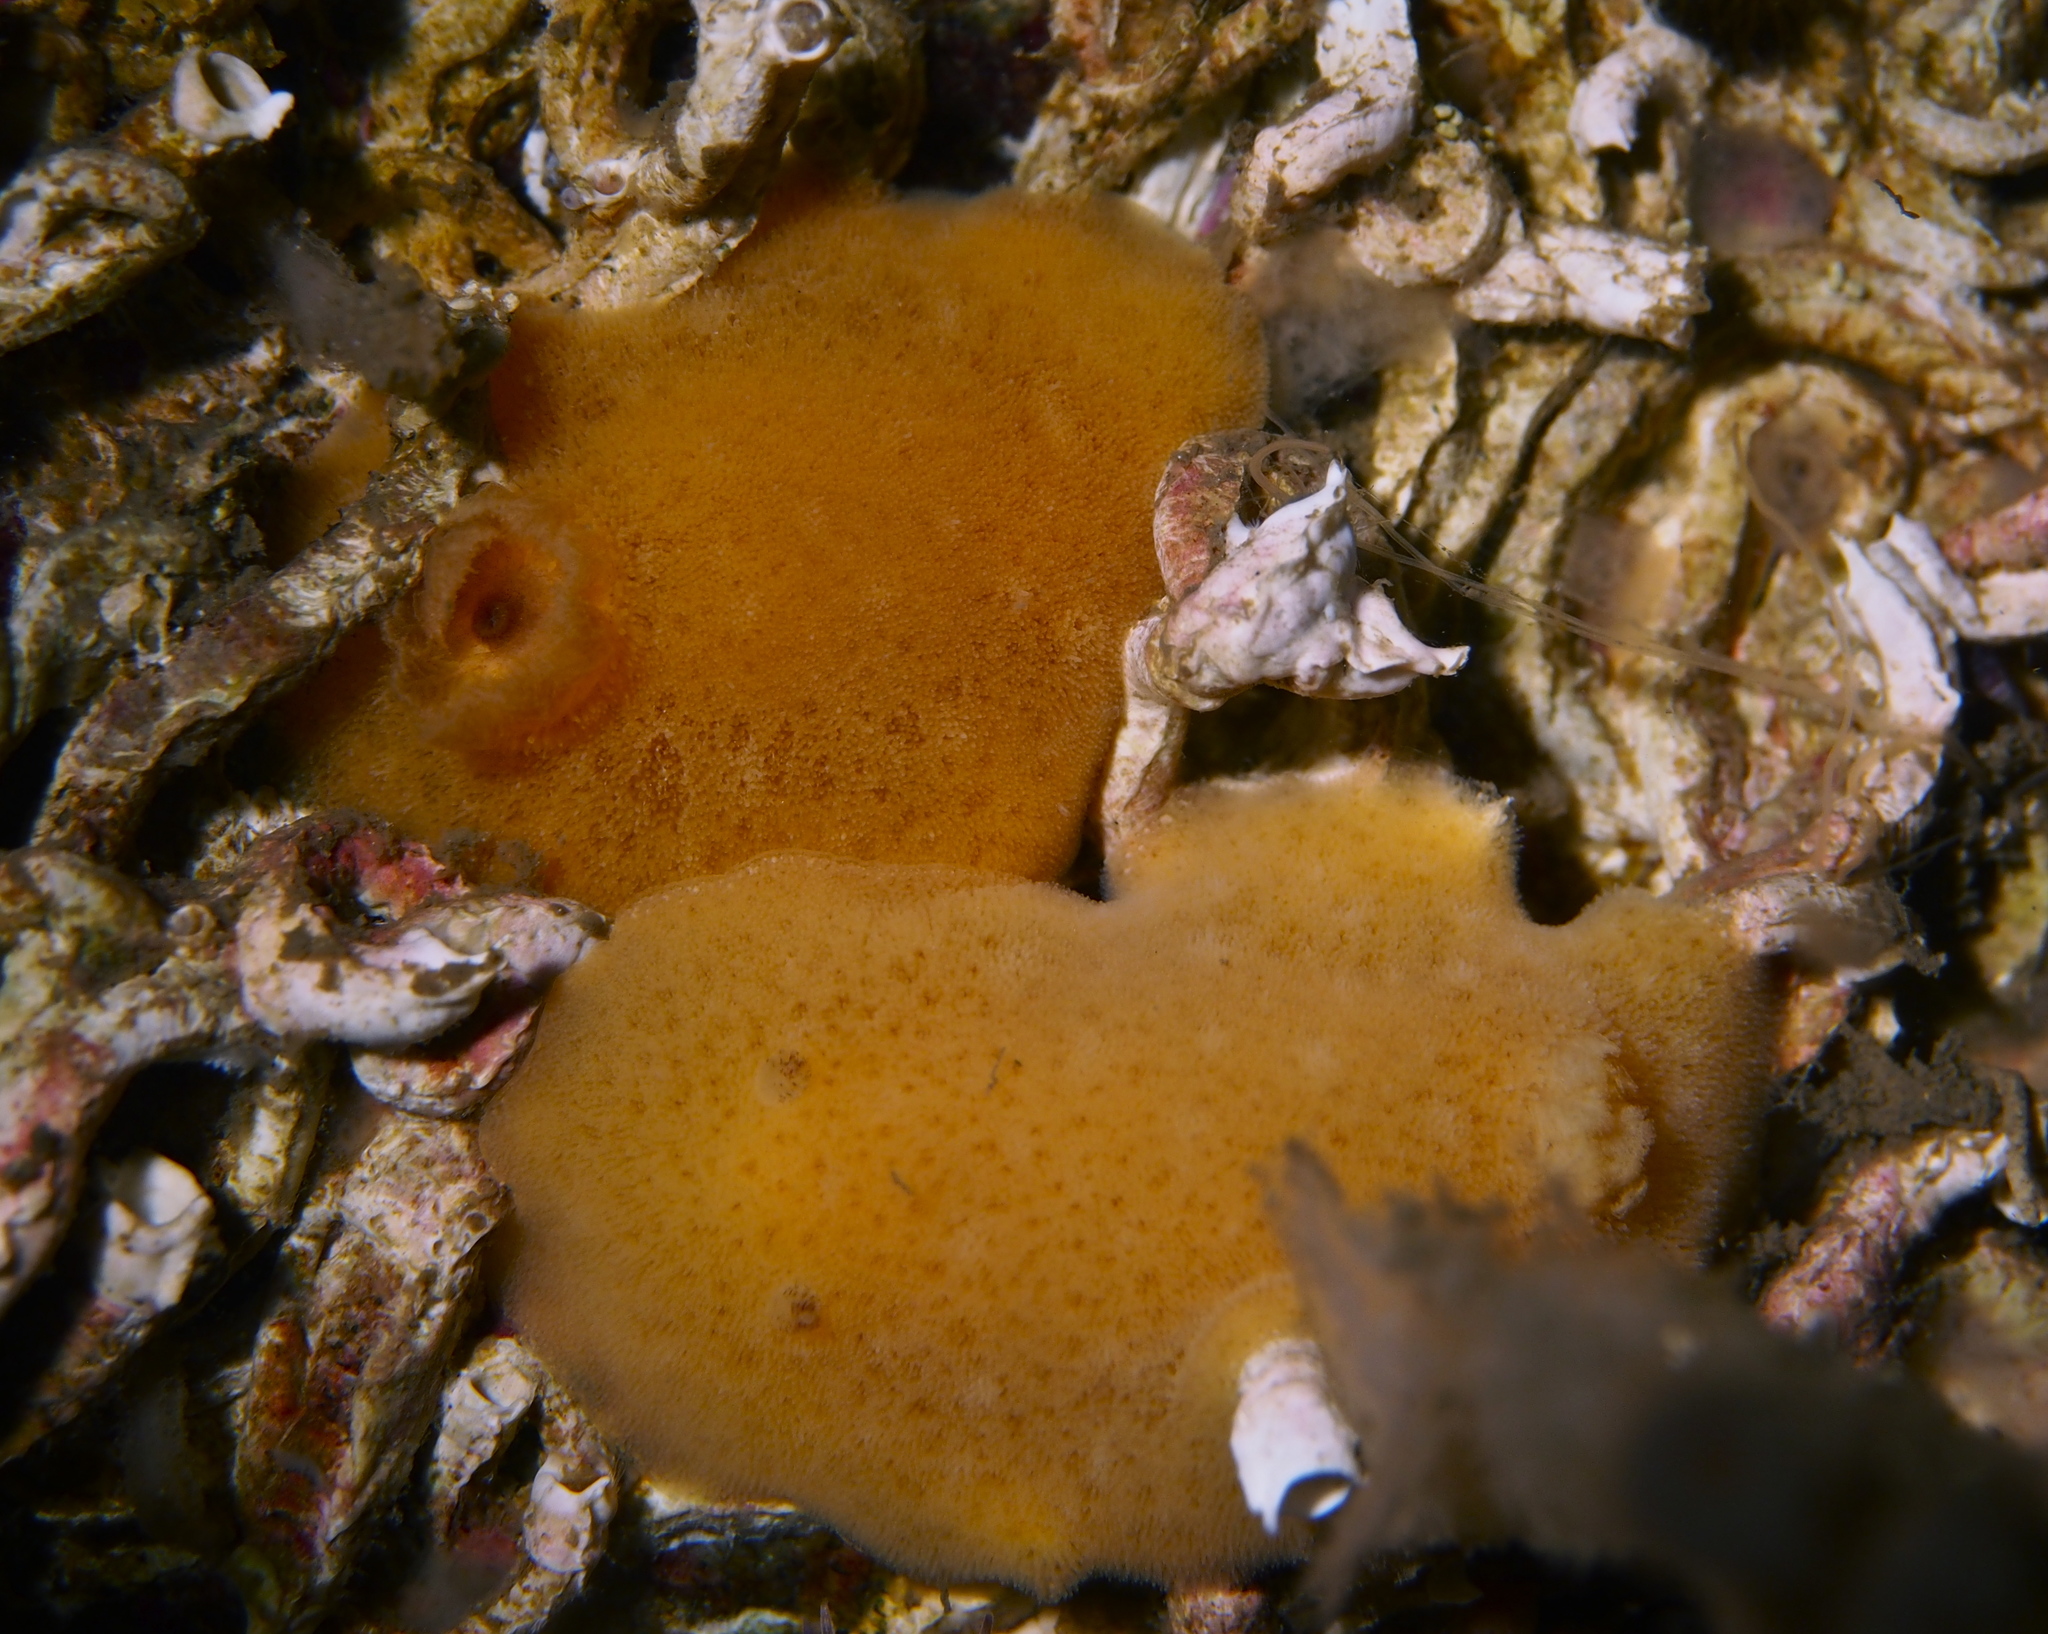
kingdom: Animalia
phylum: Mollusca
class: Gastropoda
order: Nudibranchia
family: Discodorididae
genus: Jorunna
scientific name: Jorunna tomentosa
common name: Grey sea slug
